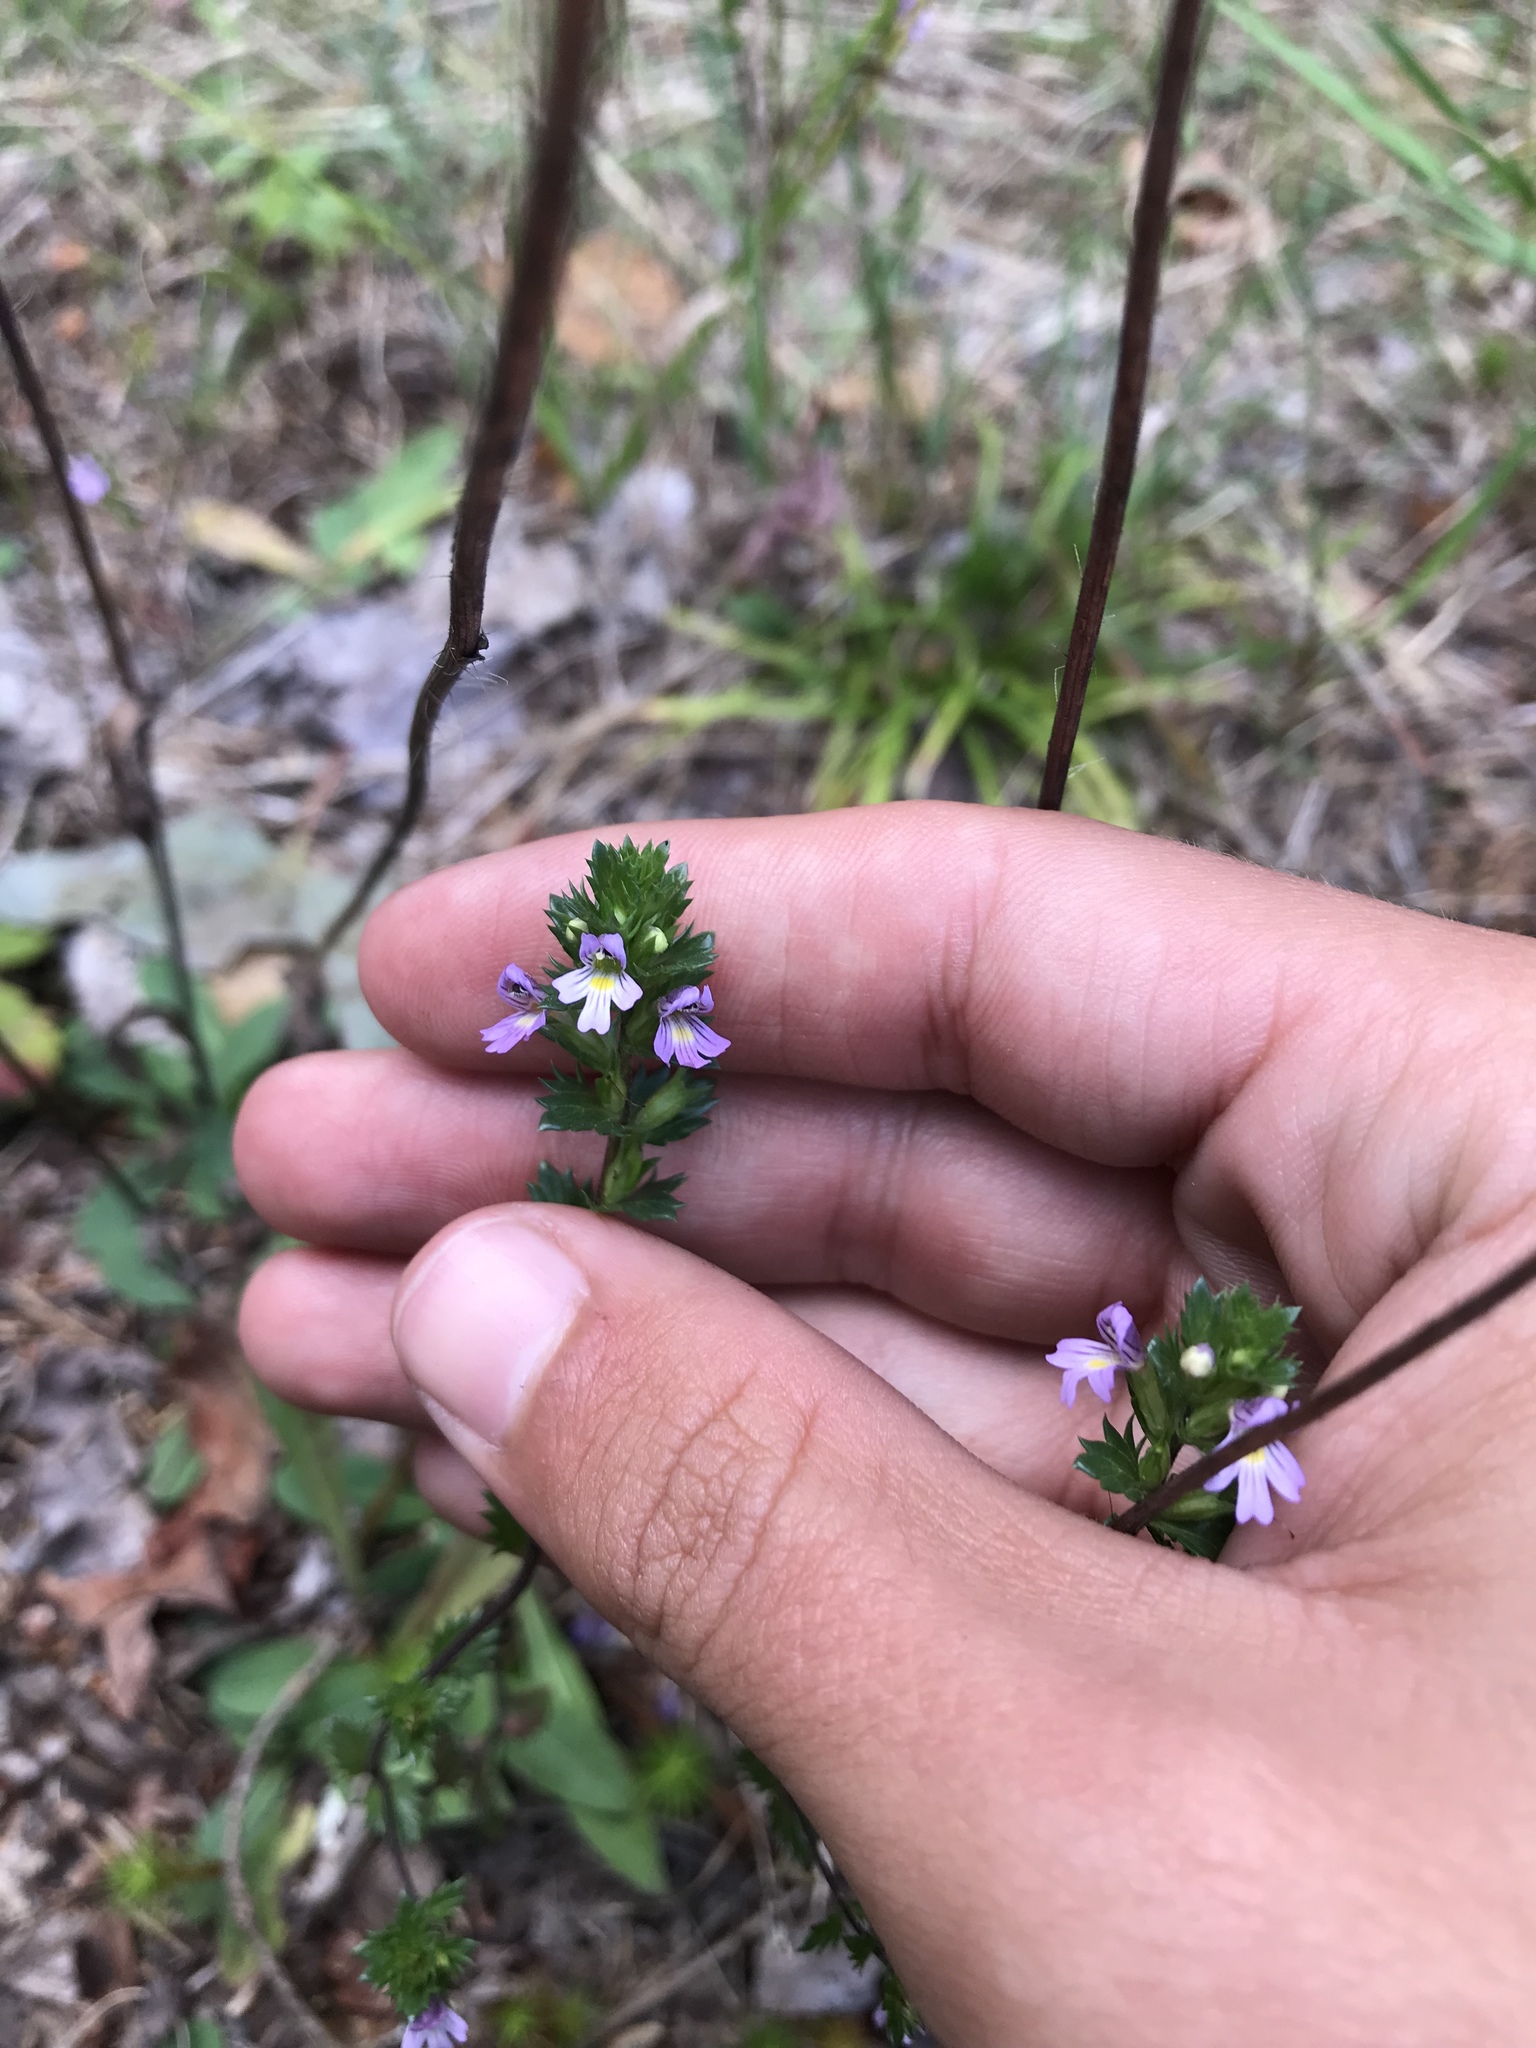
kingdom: Plantae
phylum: Tracheophyta
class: Magnoliopsida
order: Lamiales
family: Orobanchaceae
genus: Euphrasia
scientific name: Euphrasia stricta
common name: Drug eyebright
